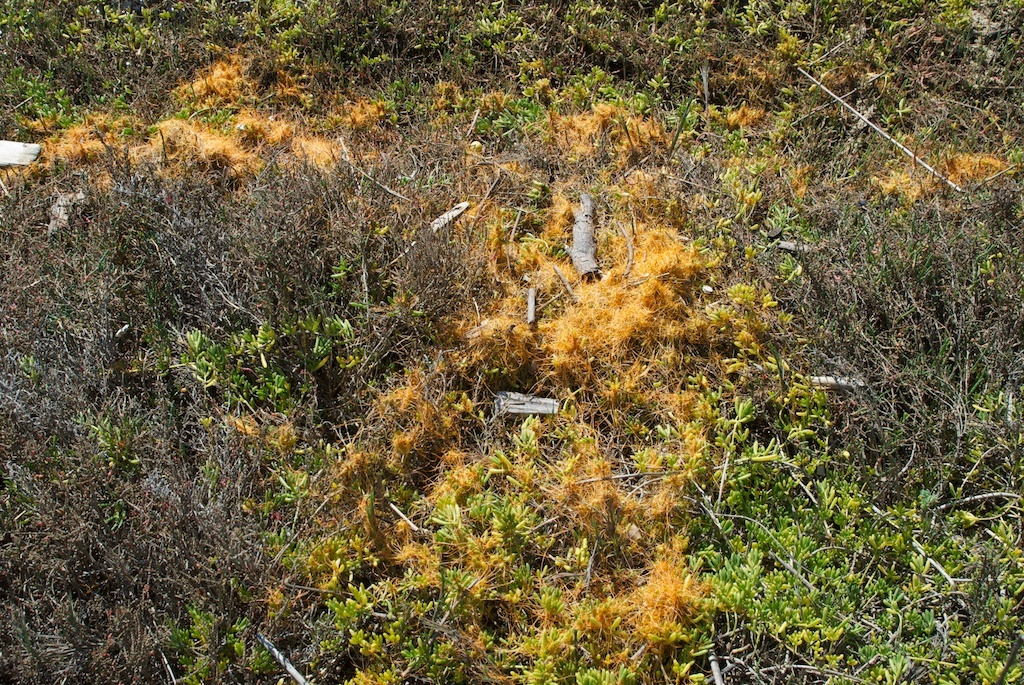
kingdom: Plantae
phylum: Tracheophyta
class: Magnoliopsida
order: Solanales
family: Convolvulaceae
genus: Cuscuta
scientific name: Cuscuta pacifica
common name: Large saltmarsh dodder
